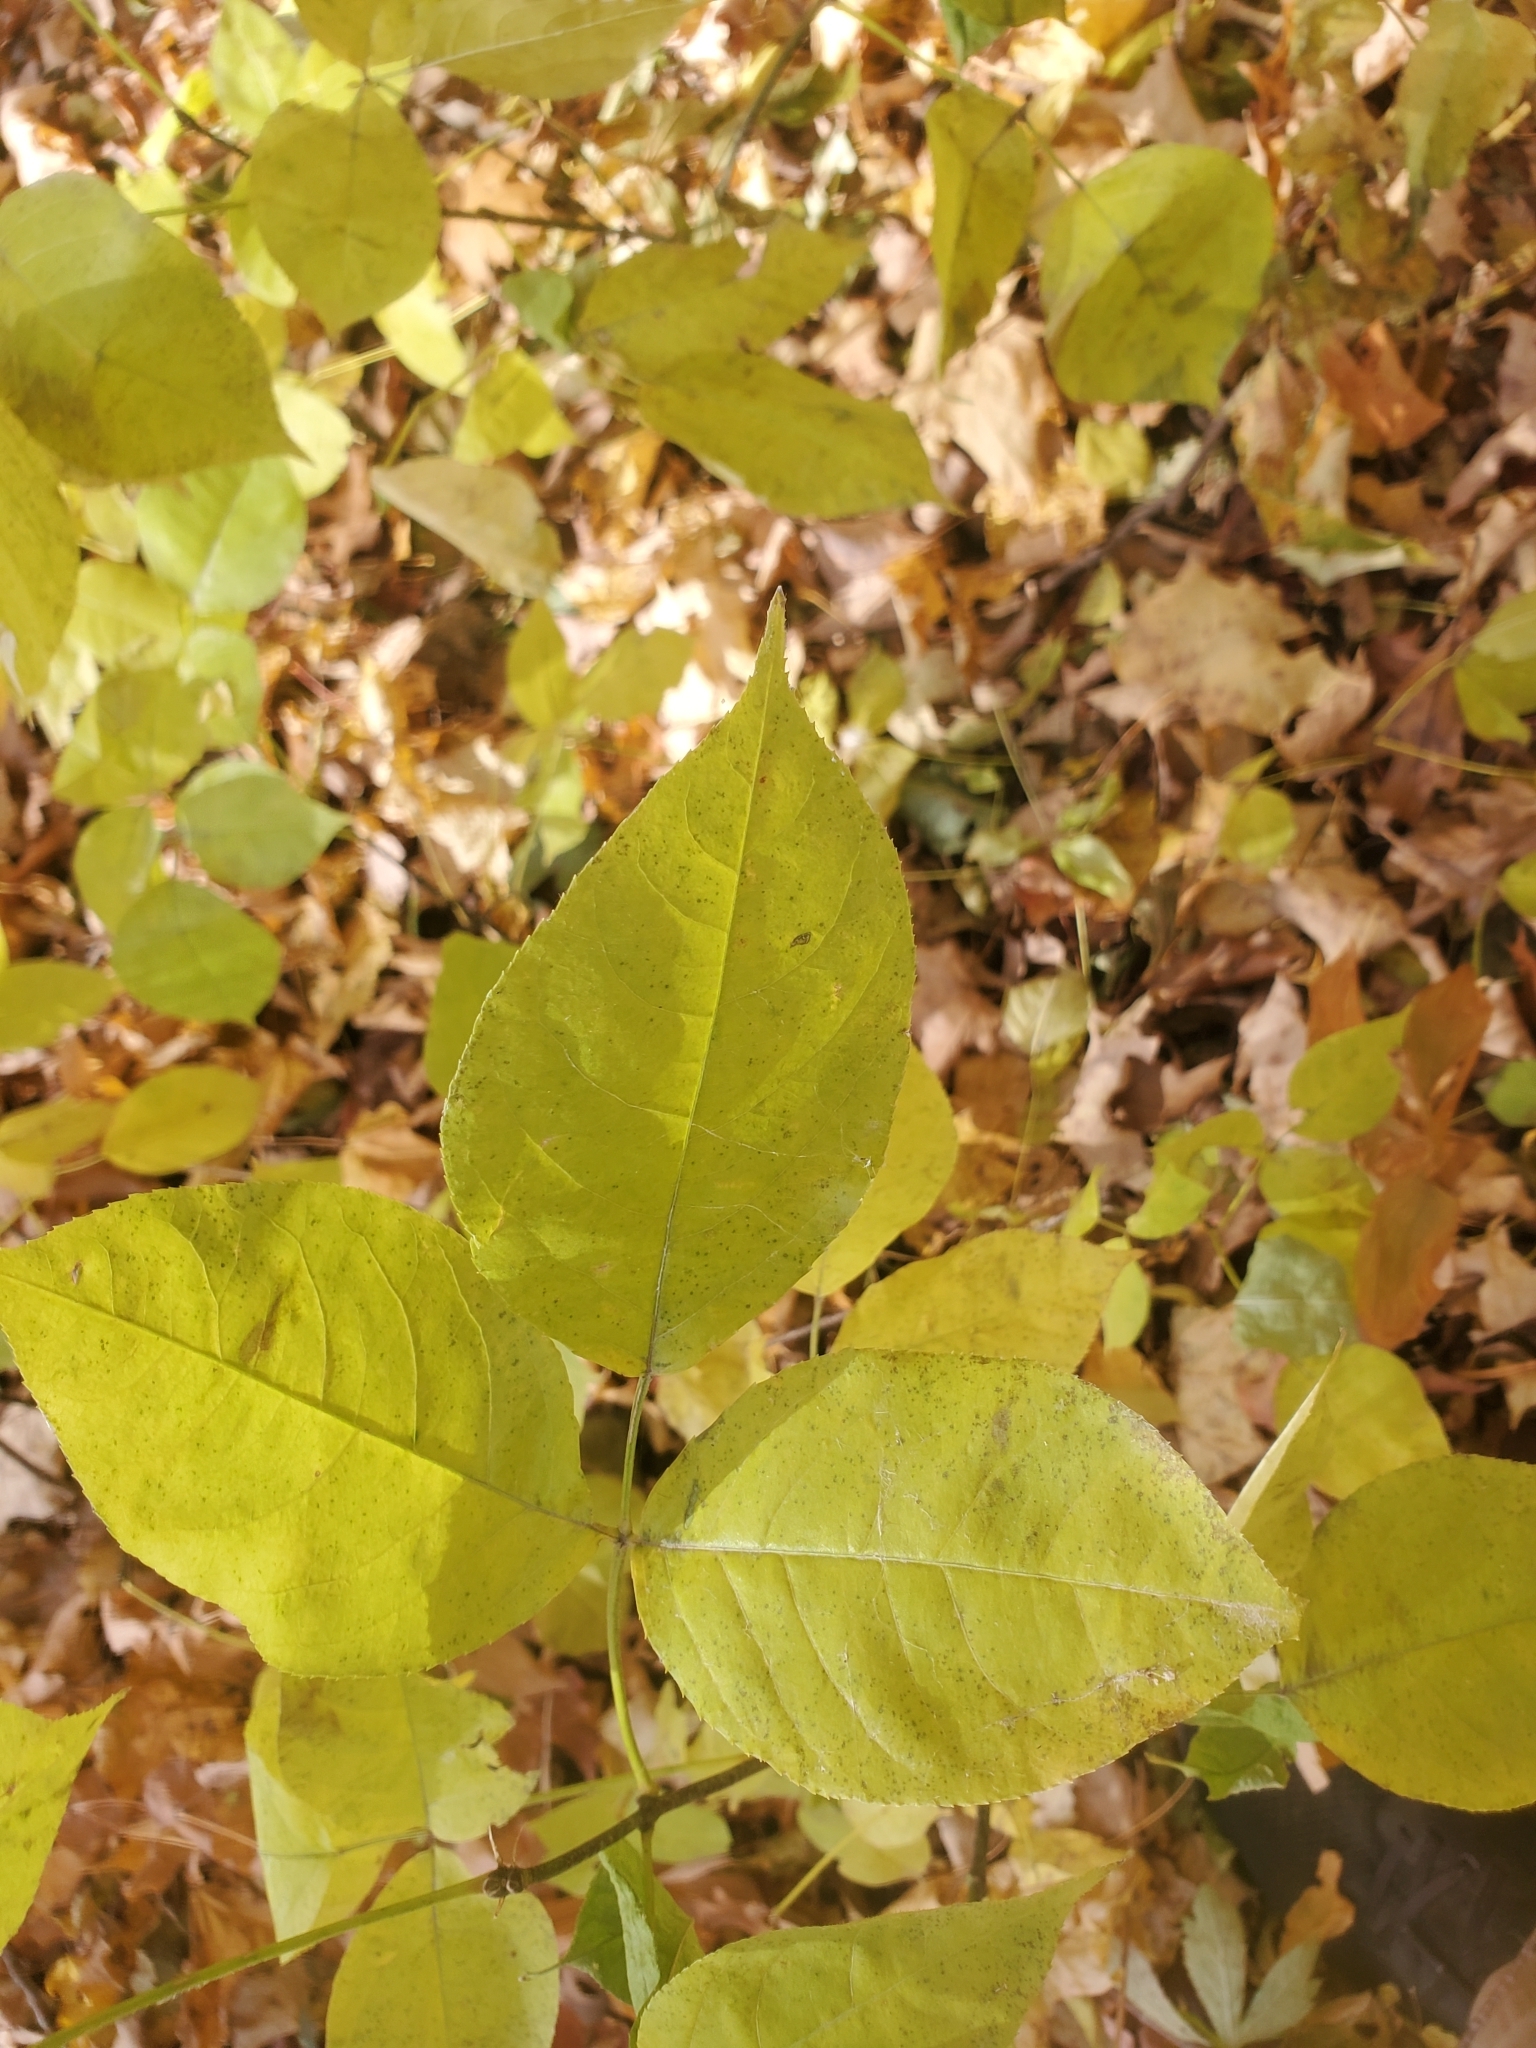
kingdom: Plantae
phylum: Tracheophyta
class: Magnoliopsida
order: Apiales
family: Araliaceae
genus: Aralia
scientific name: Aralia nudicaulis
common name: Wild sarsaparilla
